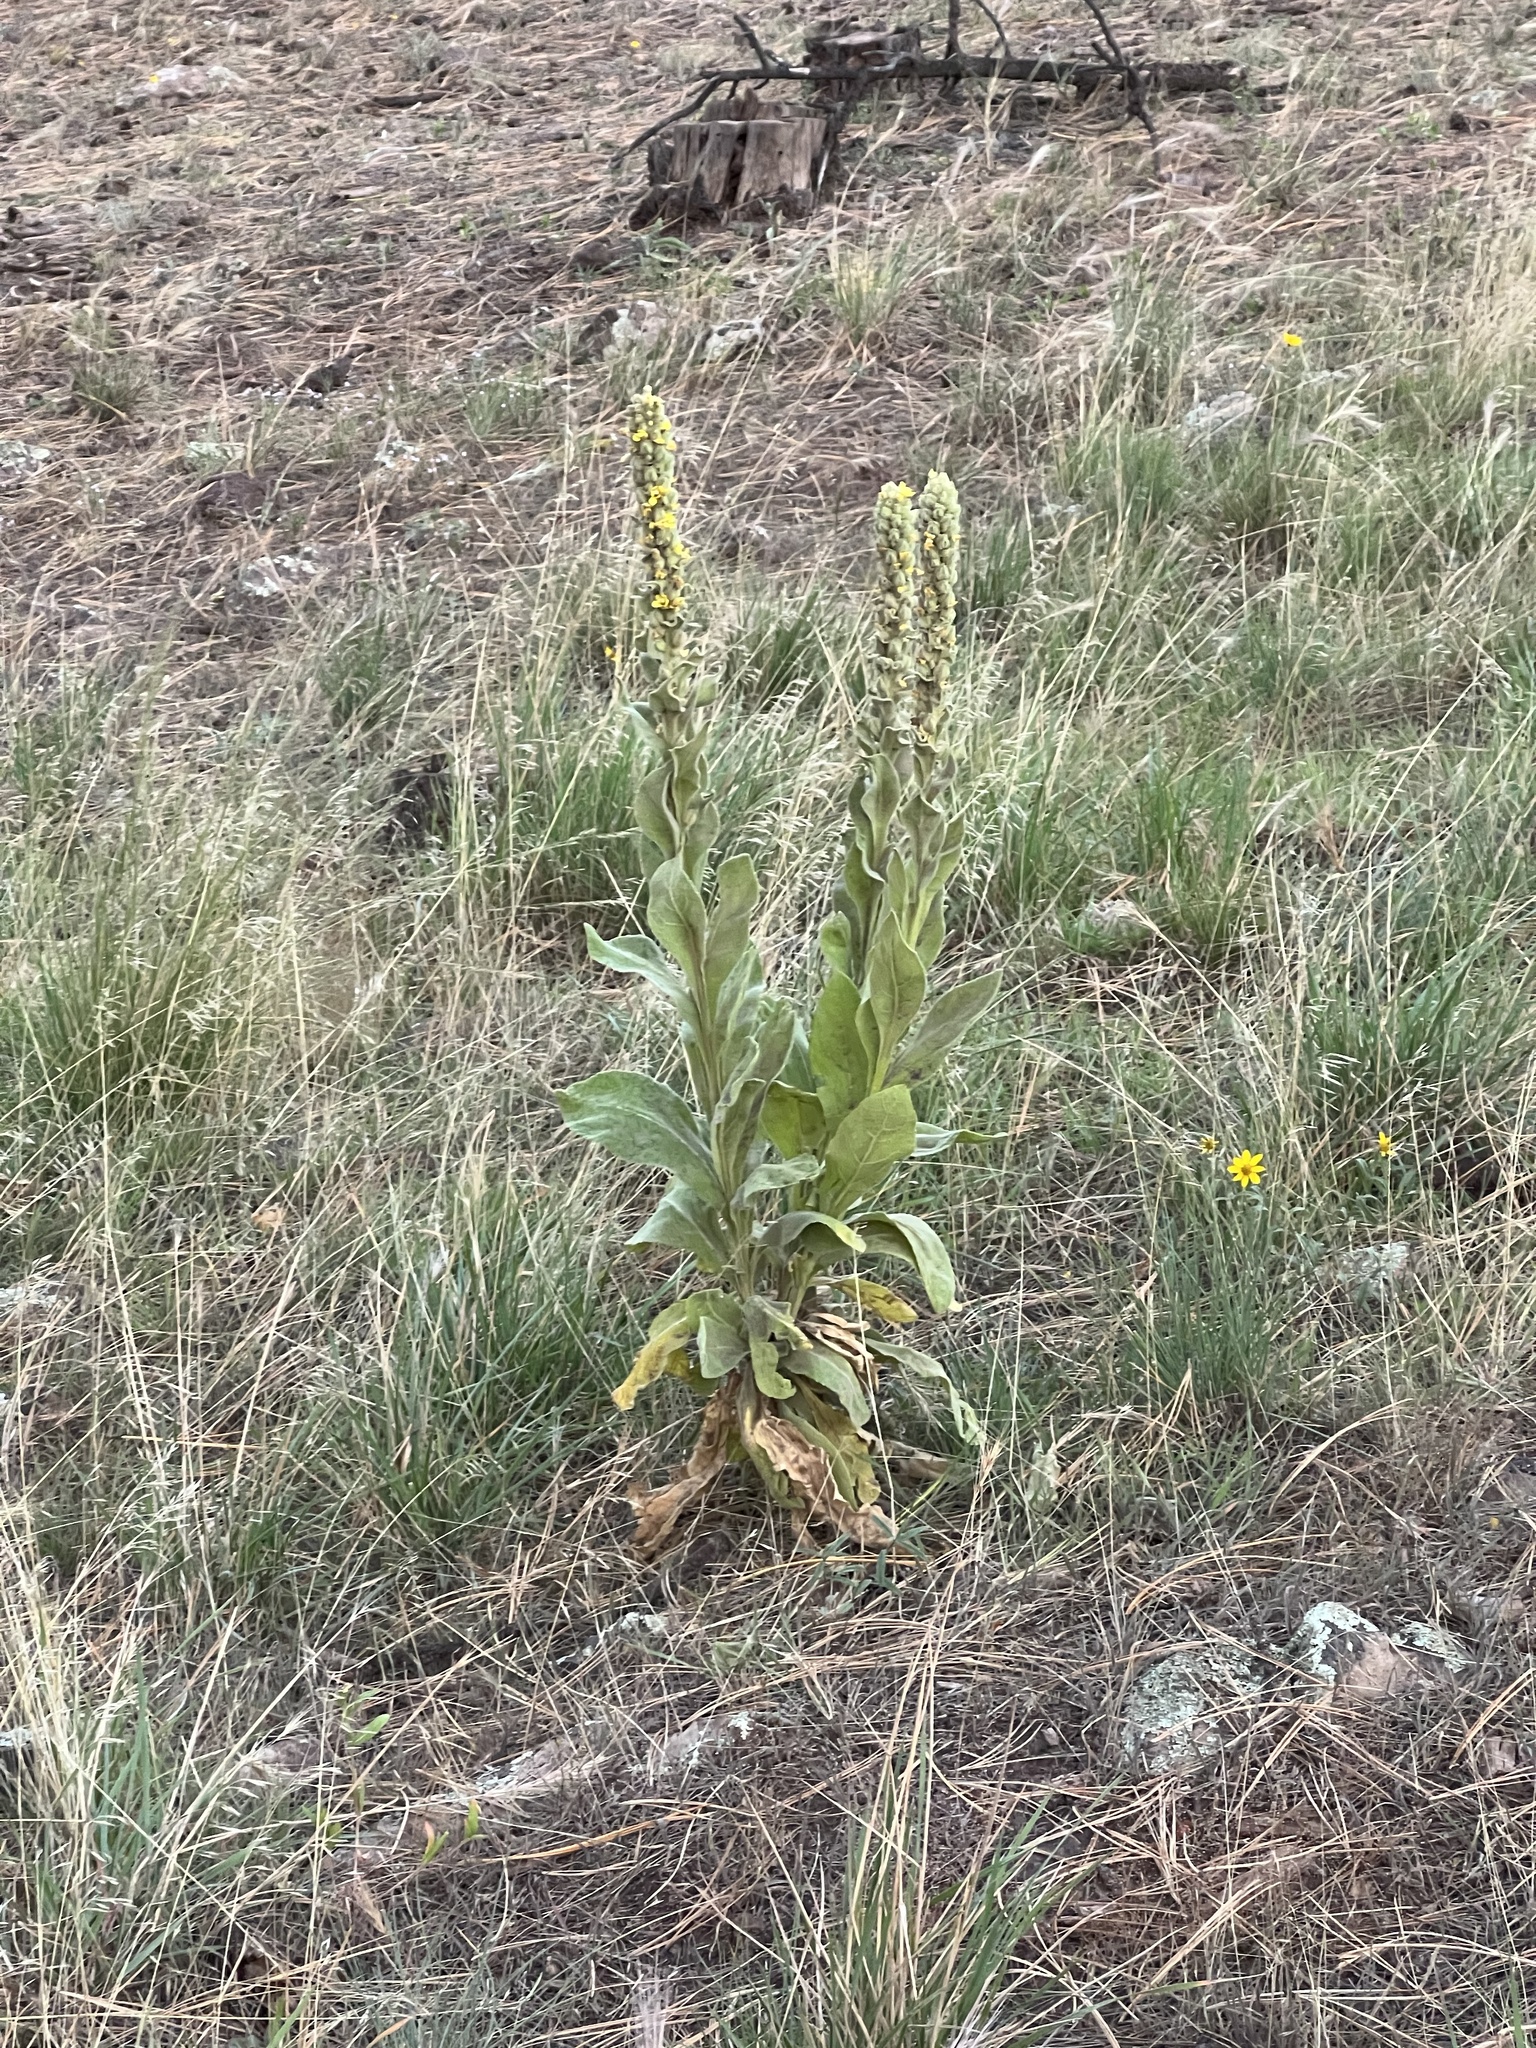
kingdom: Plantae
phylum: Tracheophyta
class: Magnoliopsida
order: Lamiales
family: Scrophulariaceae
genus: Verbascum
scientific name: Verbascum thapsus
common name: Common mullein
